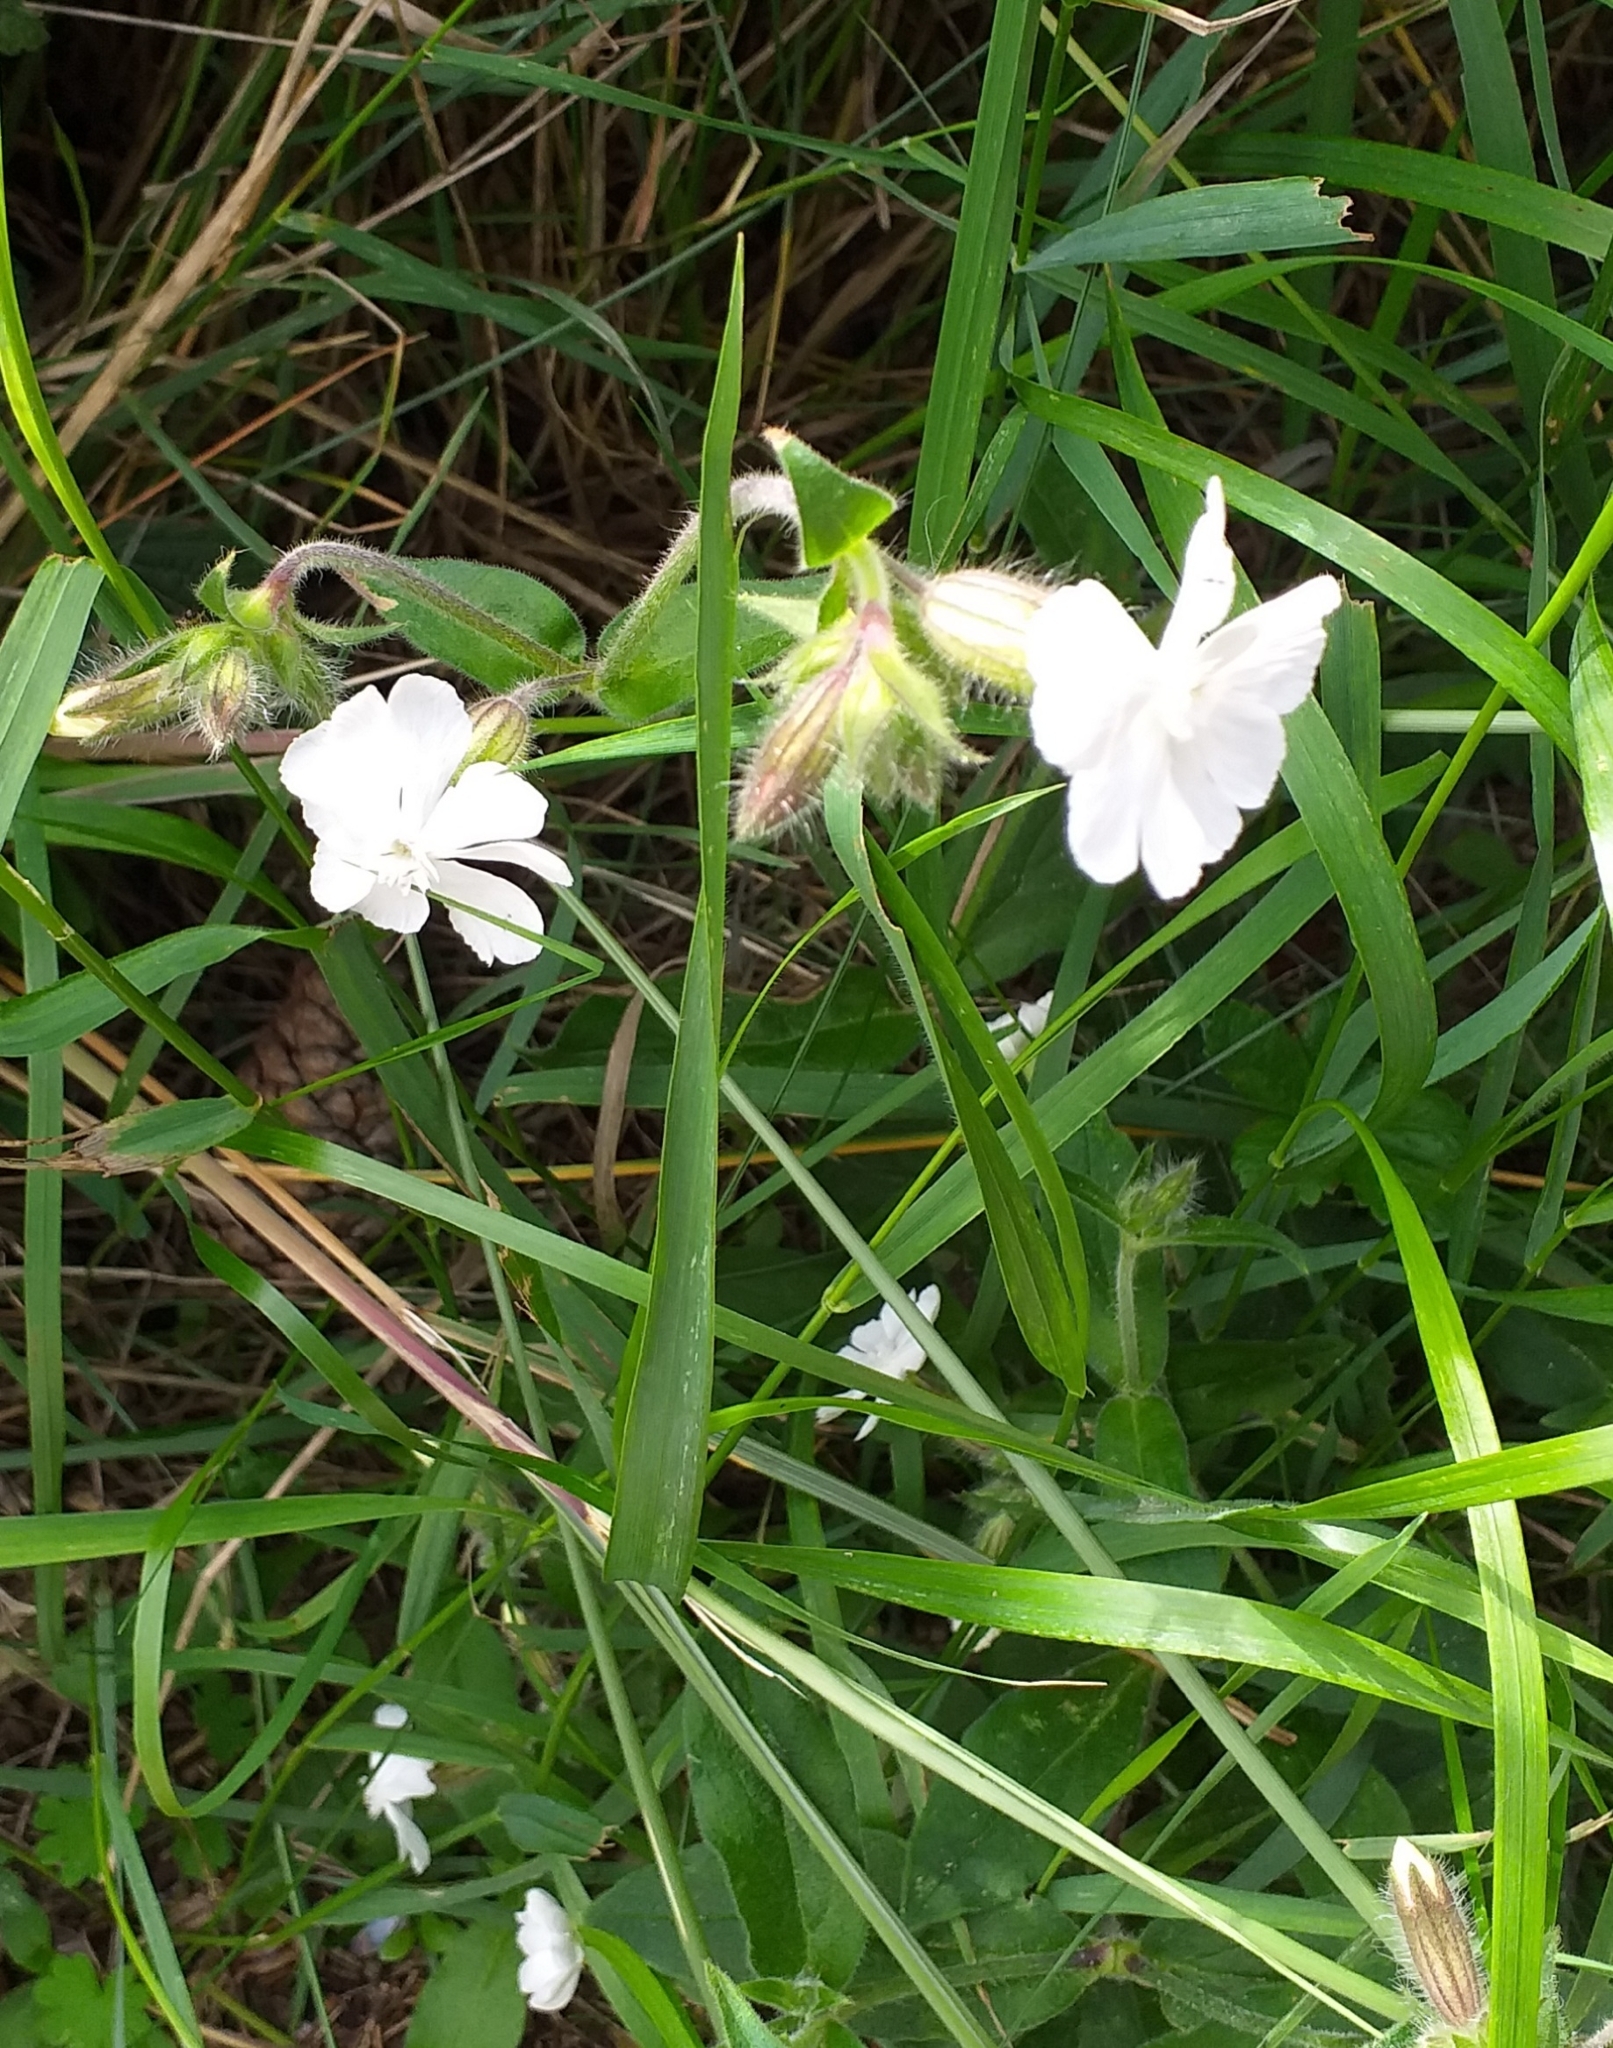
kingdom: Plantae
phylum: Tracheophyta
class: Magnoliopsida
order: Caryophyllales
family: Caryophyllaceae
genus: Silene
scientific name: Silene latifolia
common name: White campion
